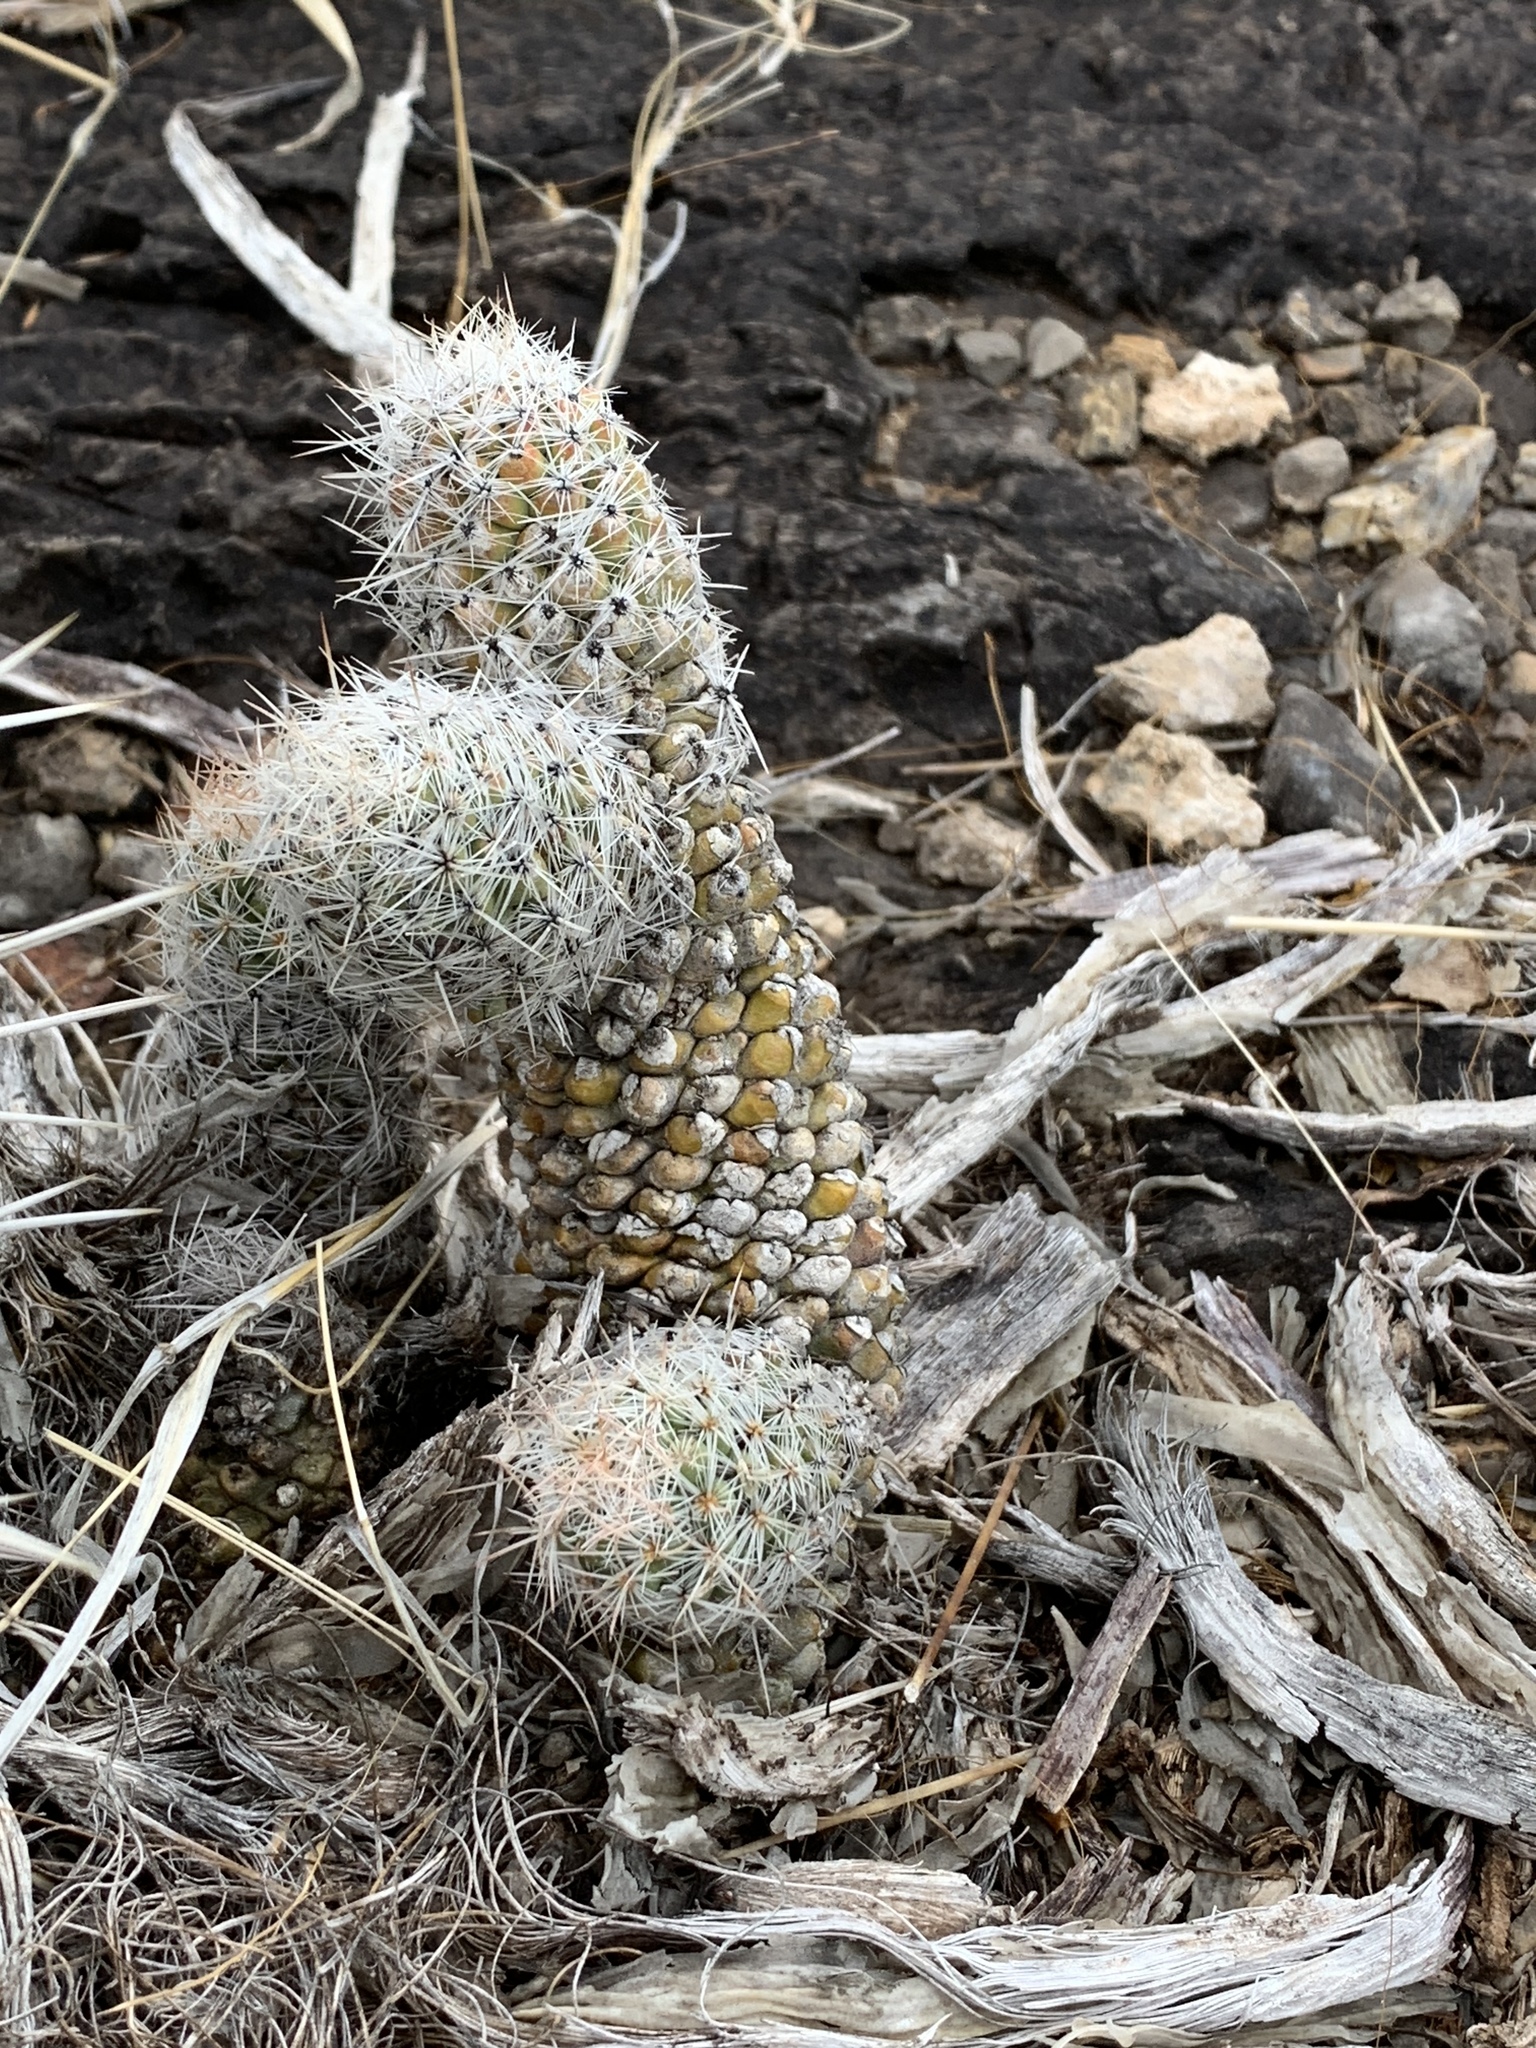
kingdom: Plantae
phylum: Tracheophyta
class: Magnoliopsida
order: Caryophyllales
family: Cactaceae
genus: Pelecyphora
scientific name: Pelecyphora tuberculosa
